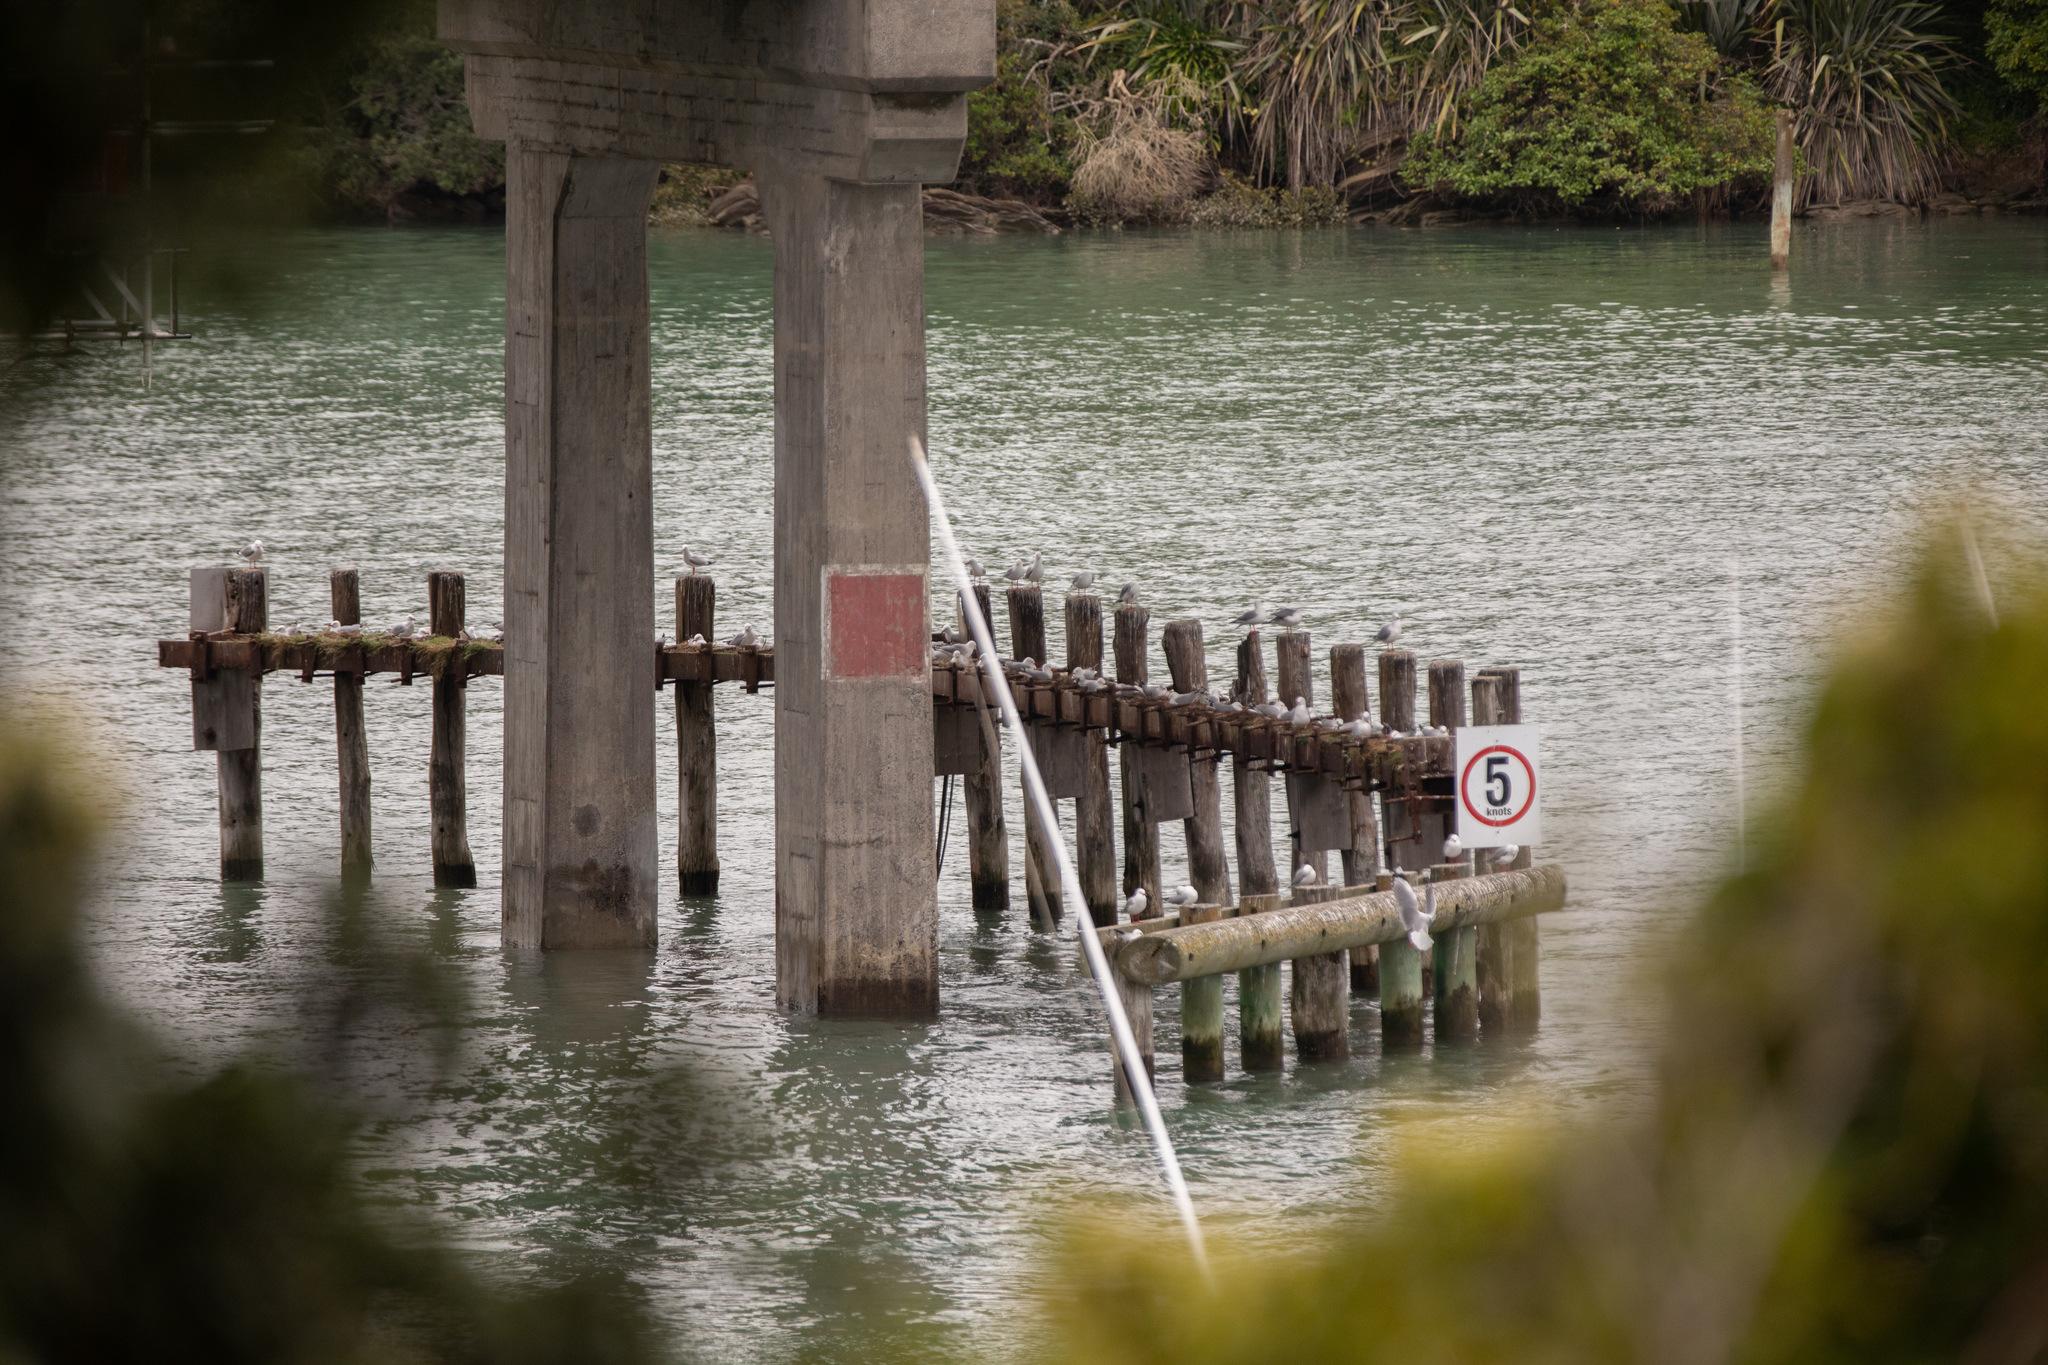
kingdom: Animalia
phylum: Chordata
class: Aves
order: Charadriiformes
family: Laridae
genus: Chroicocephalus
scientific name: Chroicocephalus novaehollandiae
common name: Silver gull
